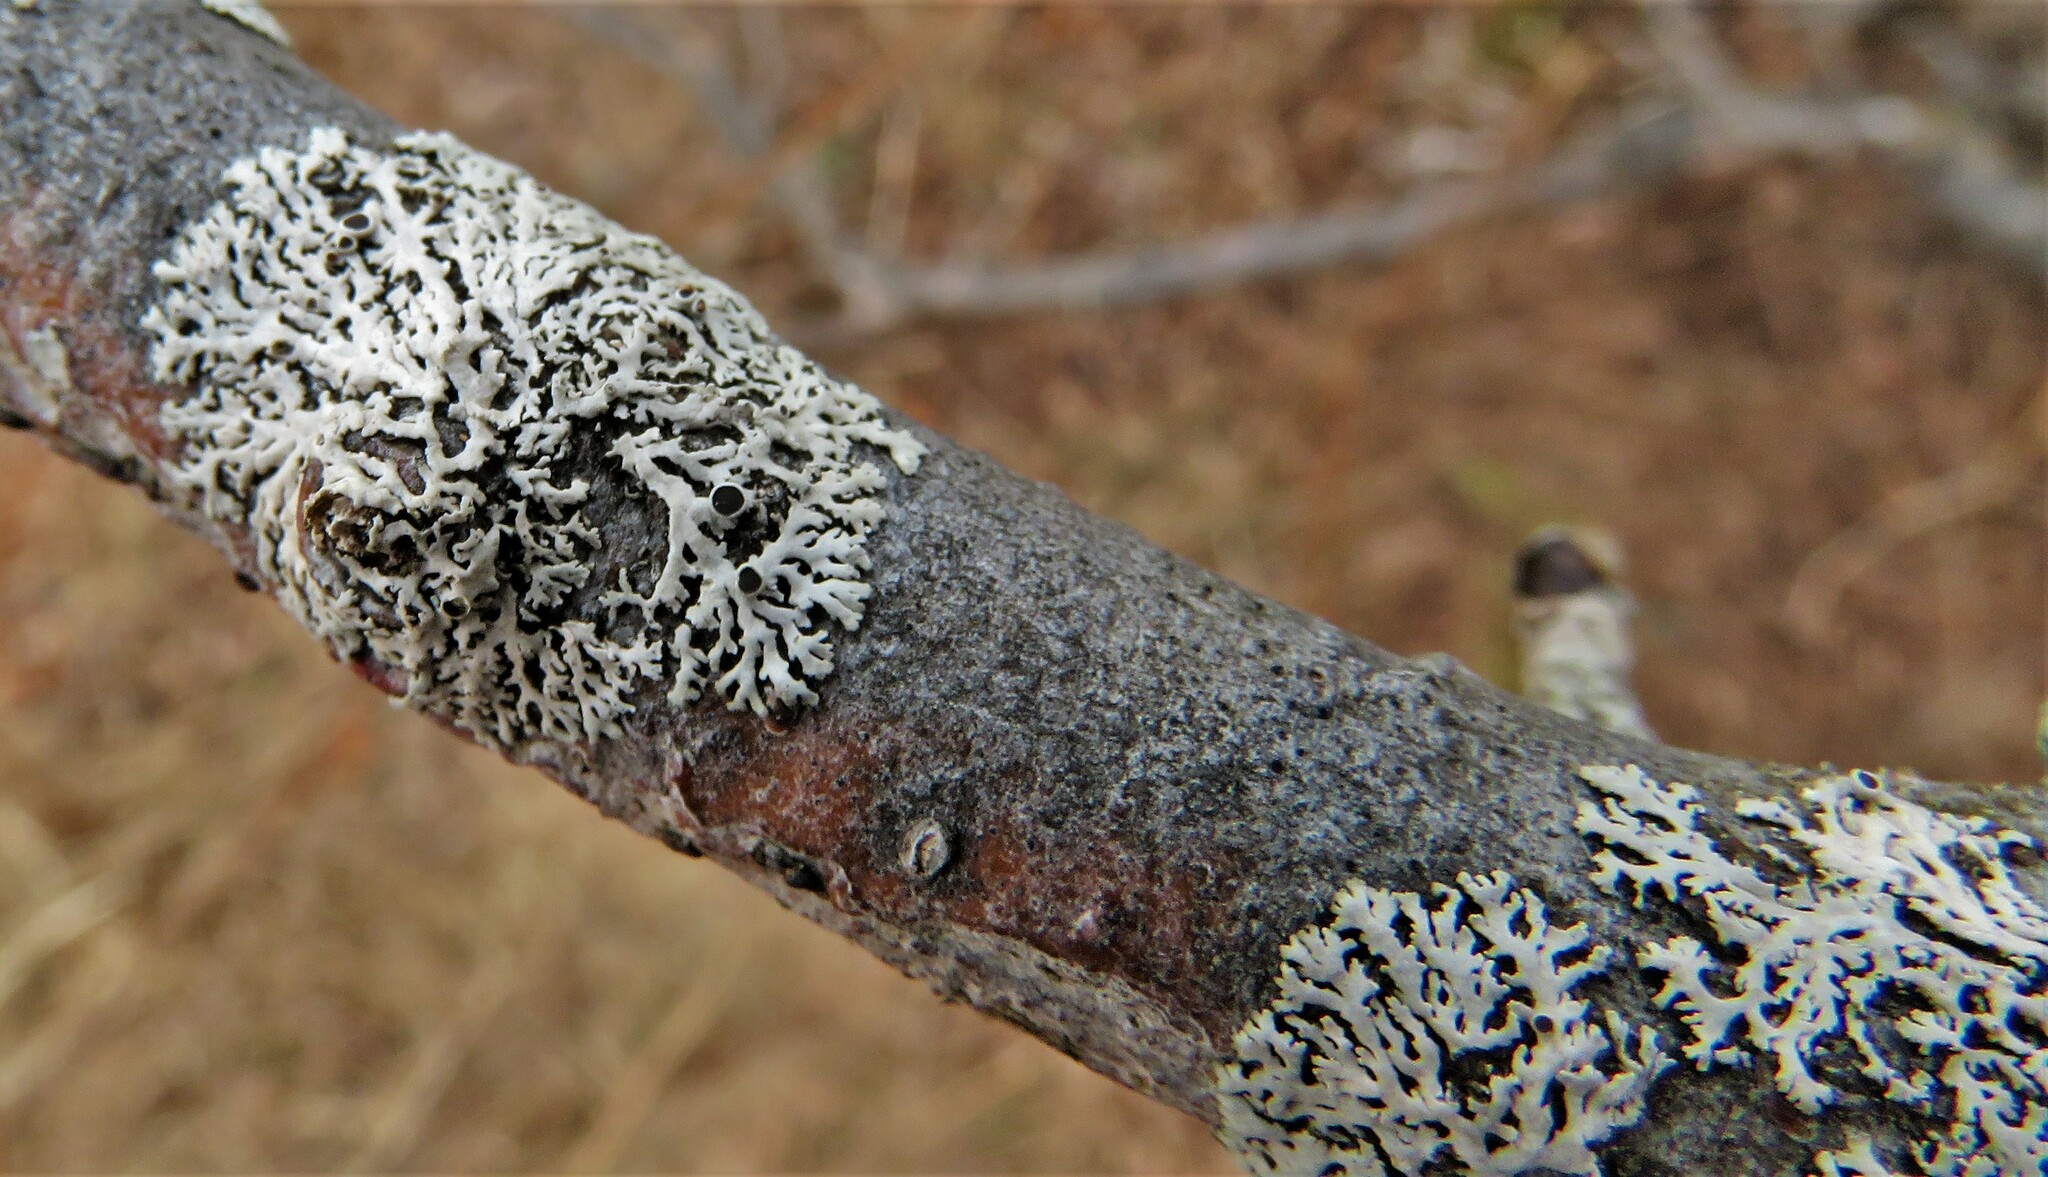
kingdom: Fungi
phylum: Ascomycota
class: Lecanoromycetes
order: Caliciales
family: Physciaceae
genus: Physcia
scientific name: Physcia stellaris
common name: Star rosette lichen
